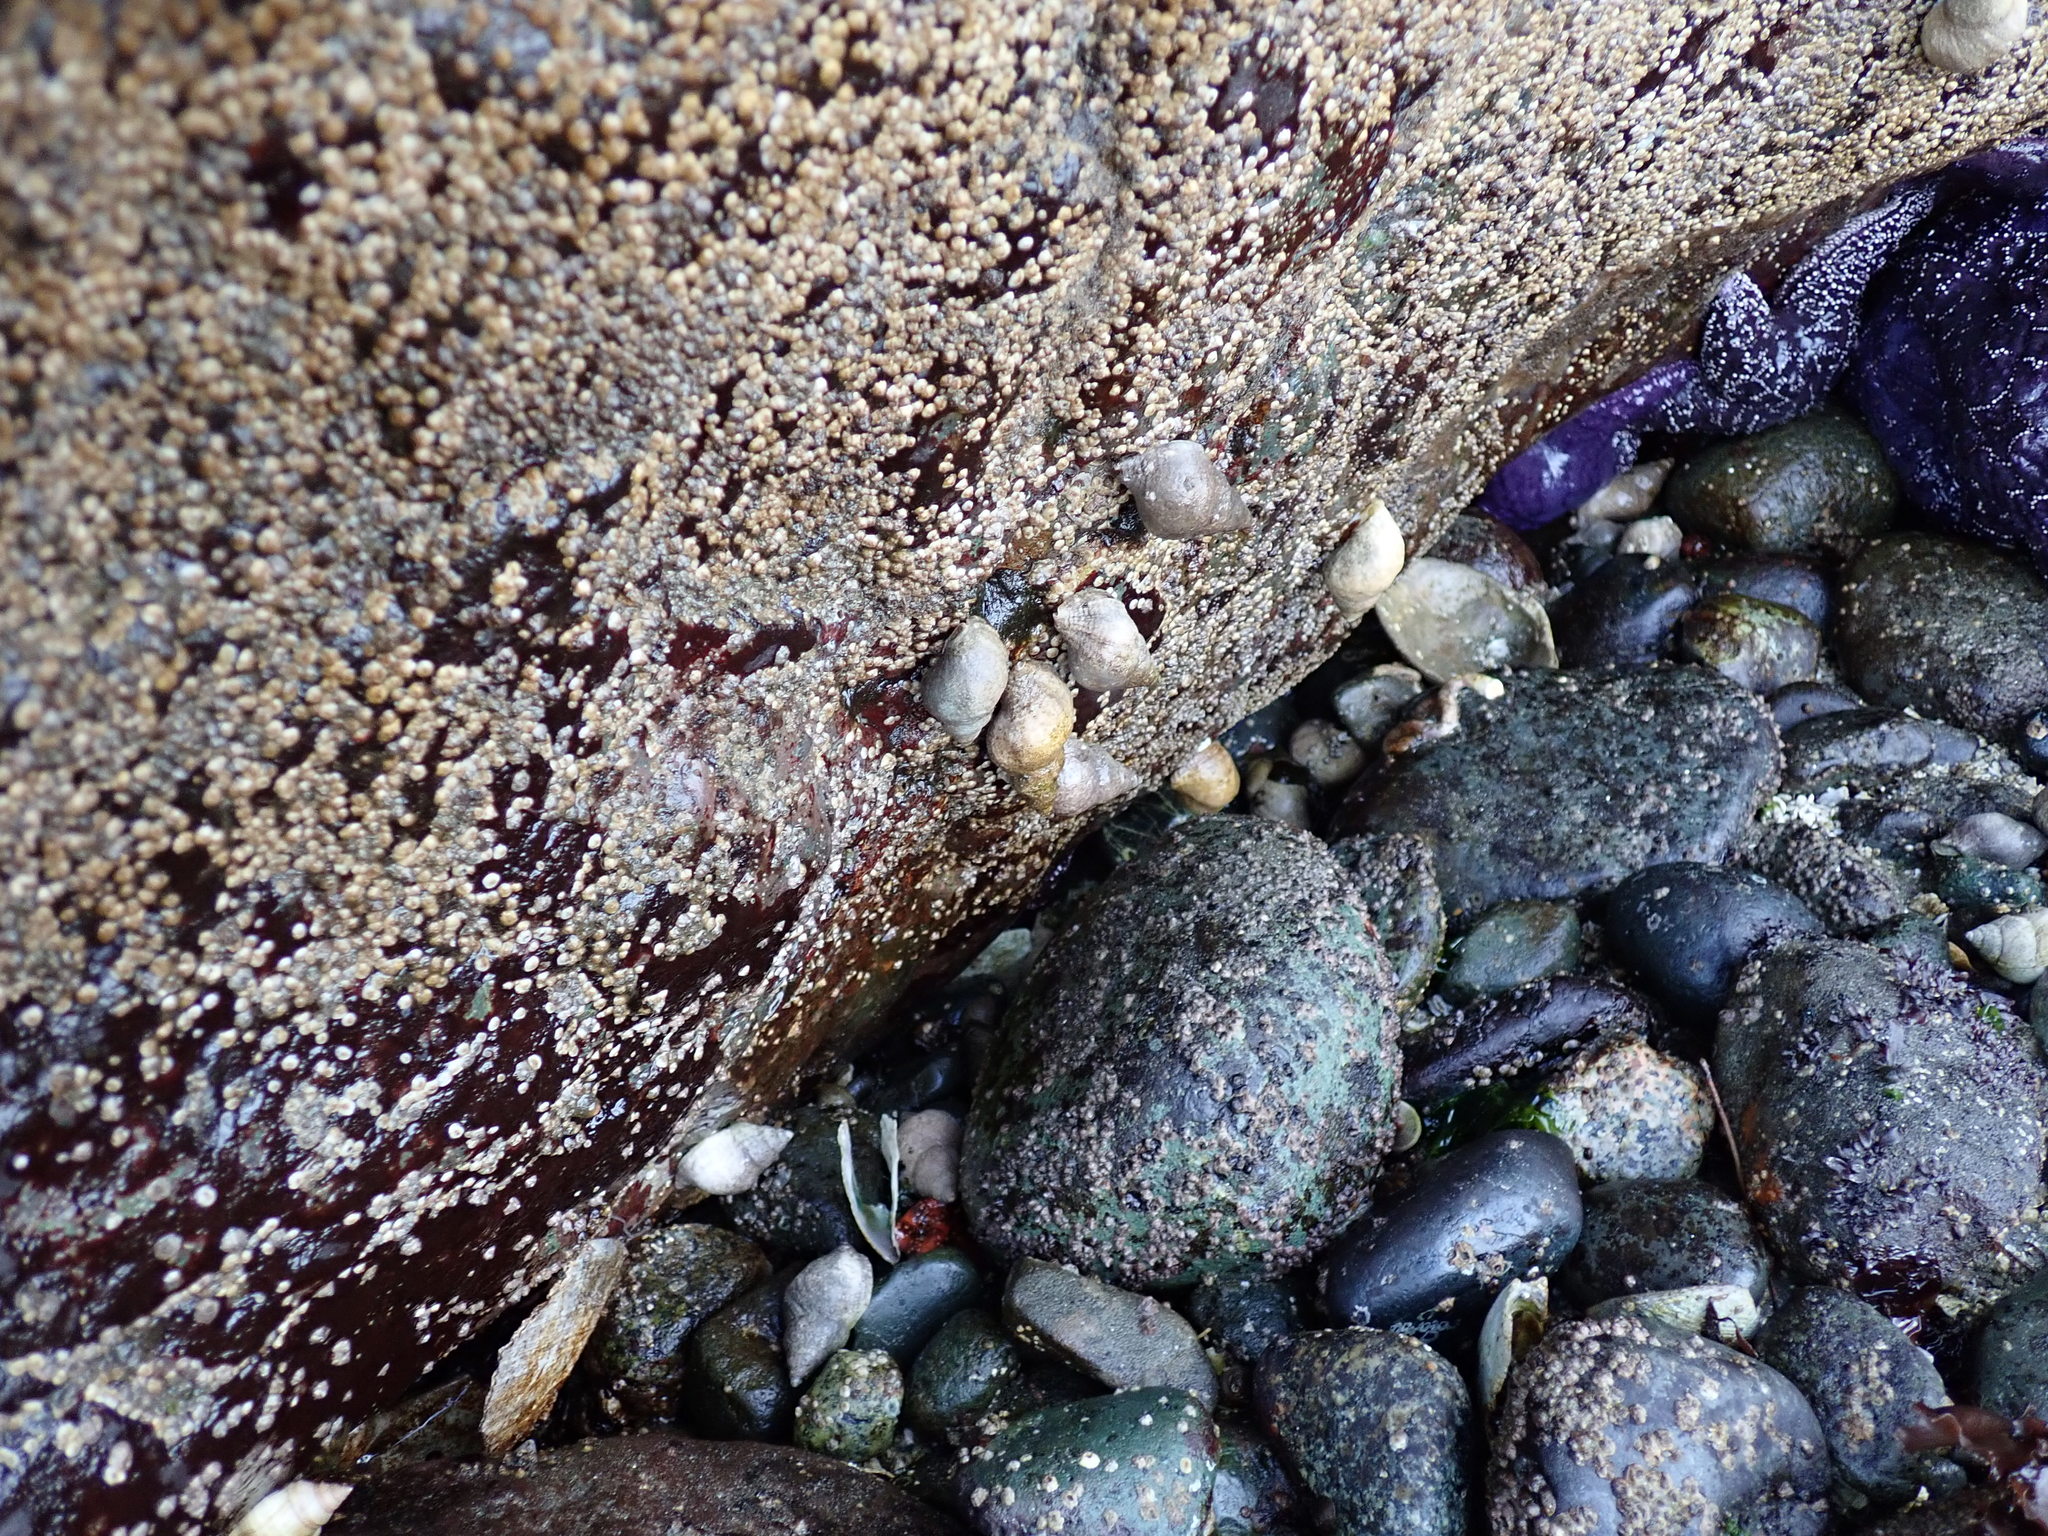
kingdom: Animalia
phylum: Mollusca
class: Gastropoda
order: Neogastropoda
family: Muricidae
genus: Nucella
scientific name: Nucella lamellosa
